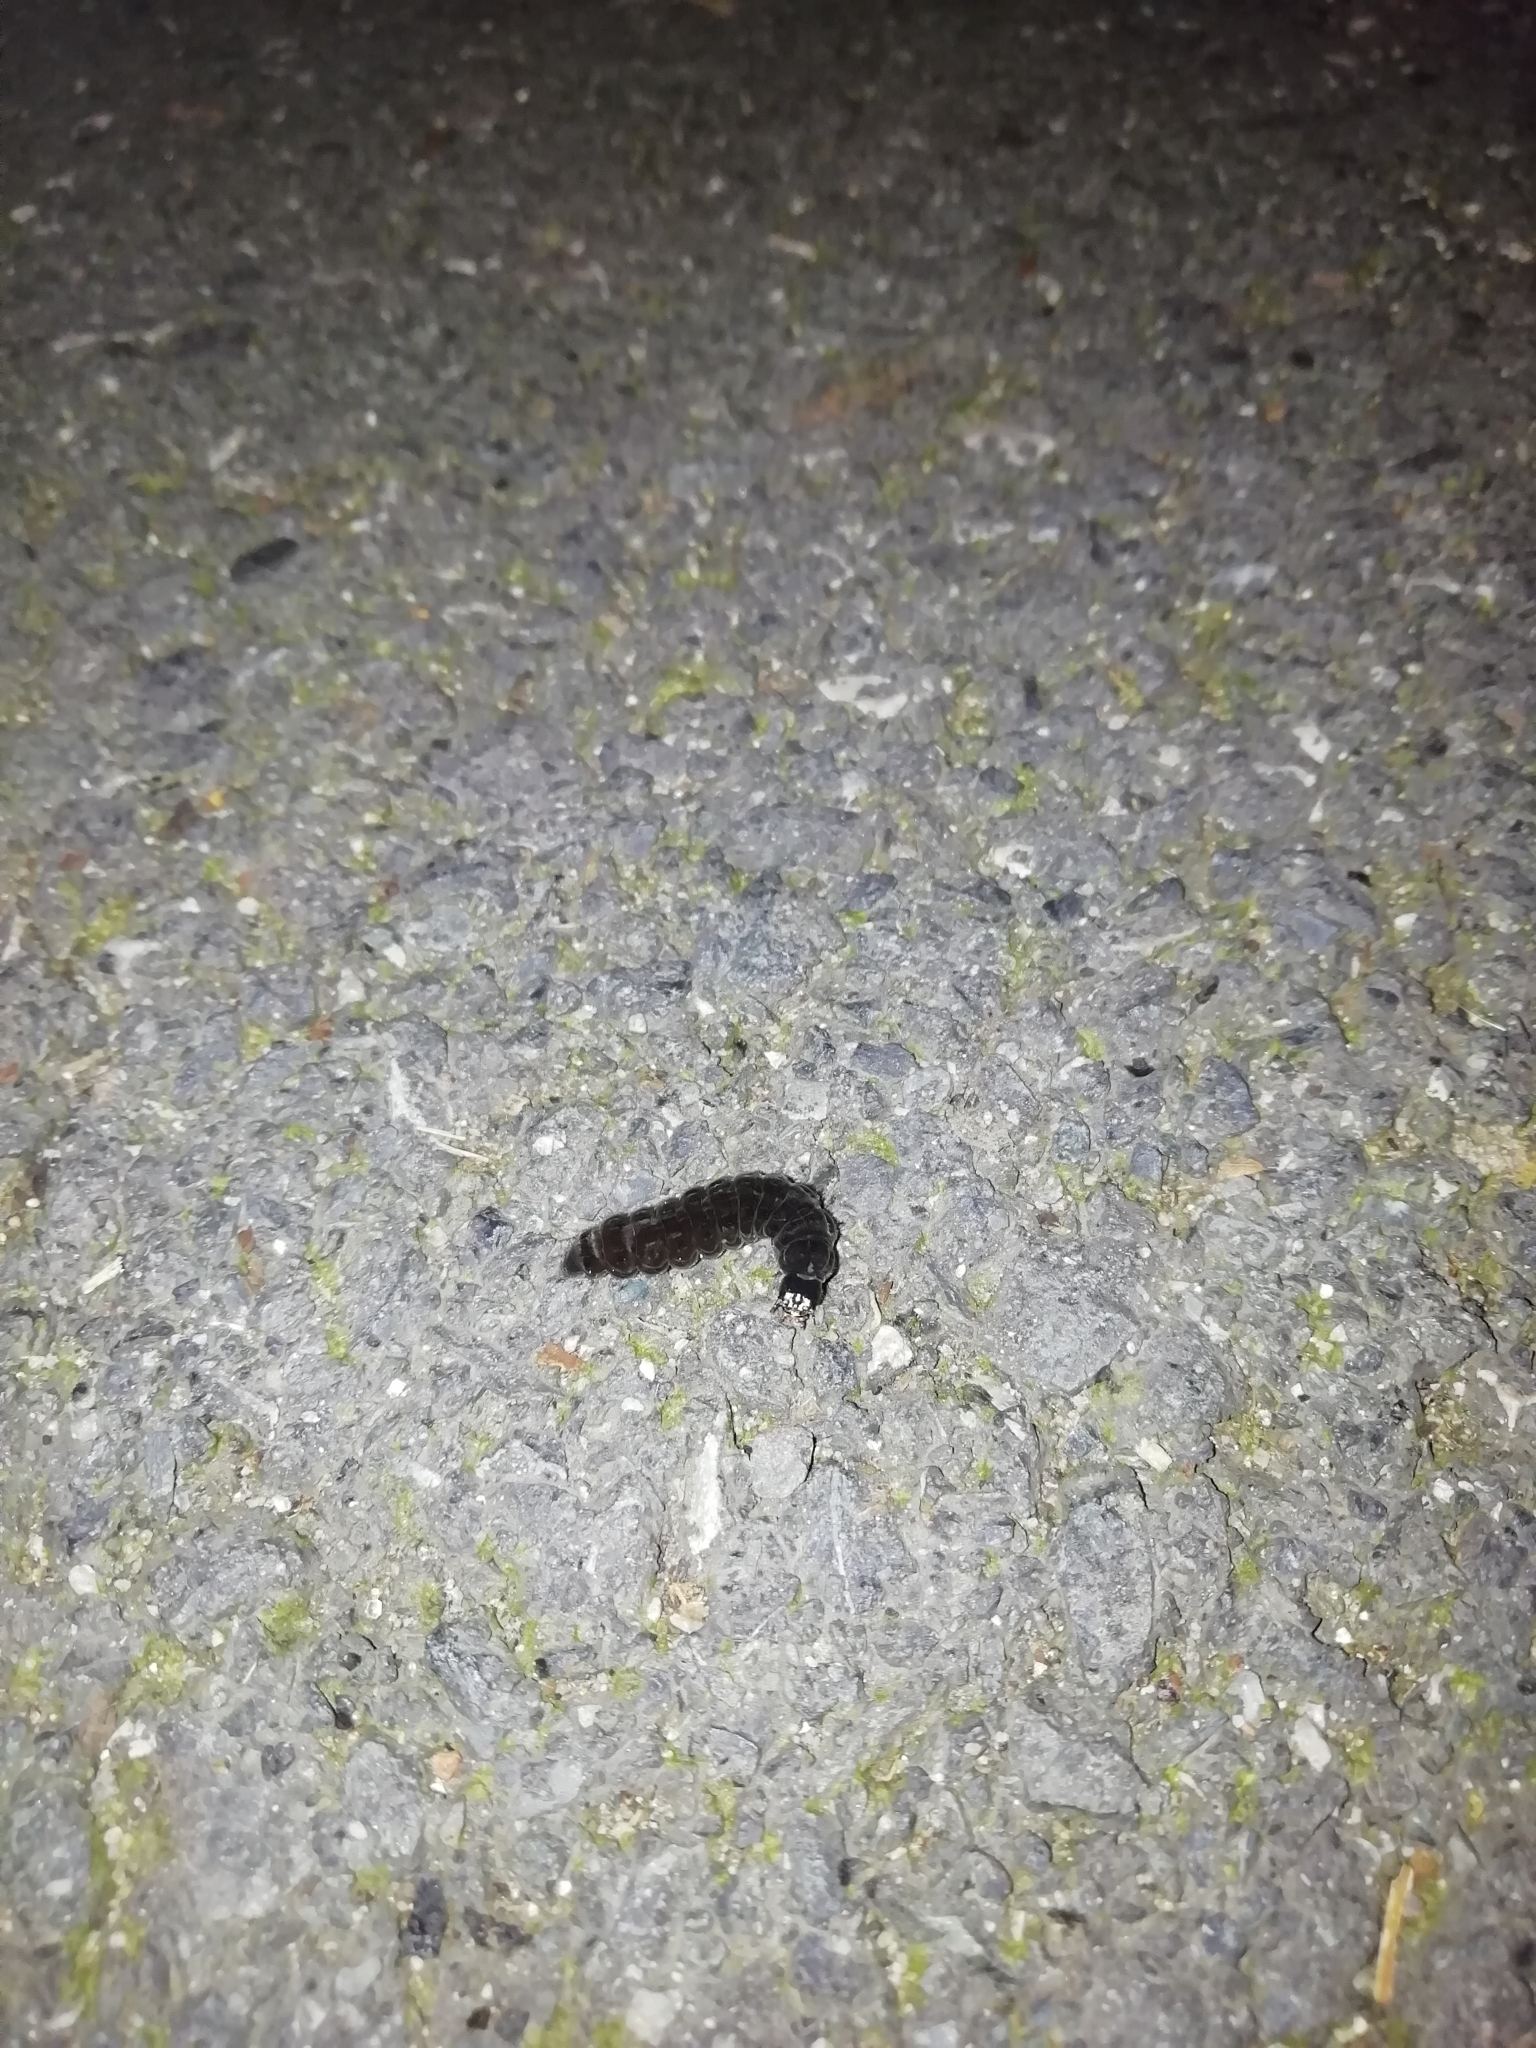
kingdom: Animalia
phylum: Arthropoda
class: Insecta
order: Coleoptera
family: Cantharidae
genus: Cantharis
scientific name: Cantharis fusca
